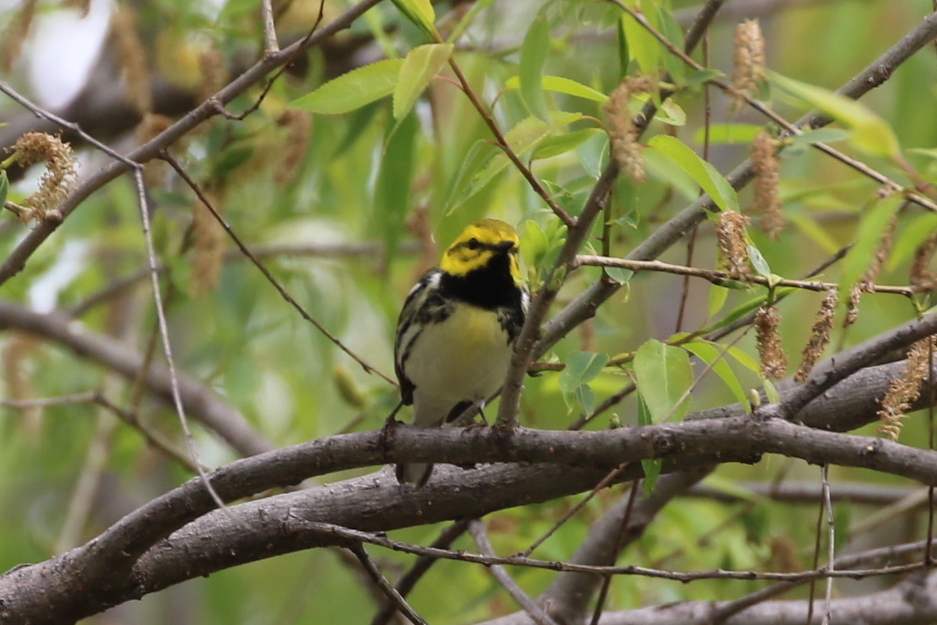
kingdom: Animalia
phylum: Chordata
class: Aves
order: Passeriformes
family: Parulidae
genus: Setophaga
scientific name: Setophaga virens
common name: Black-throated green warbler
